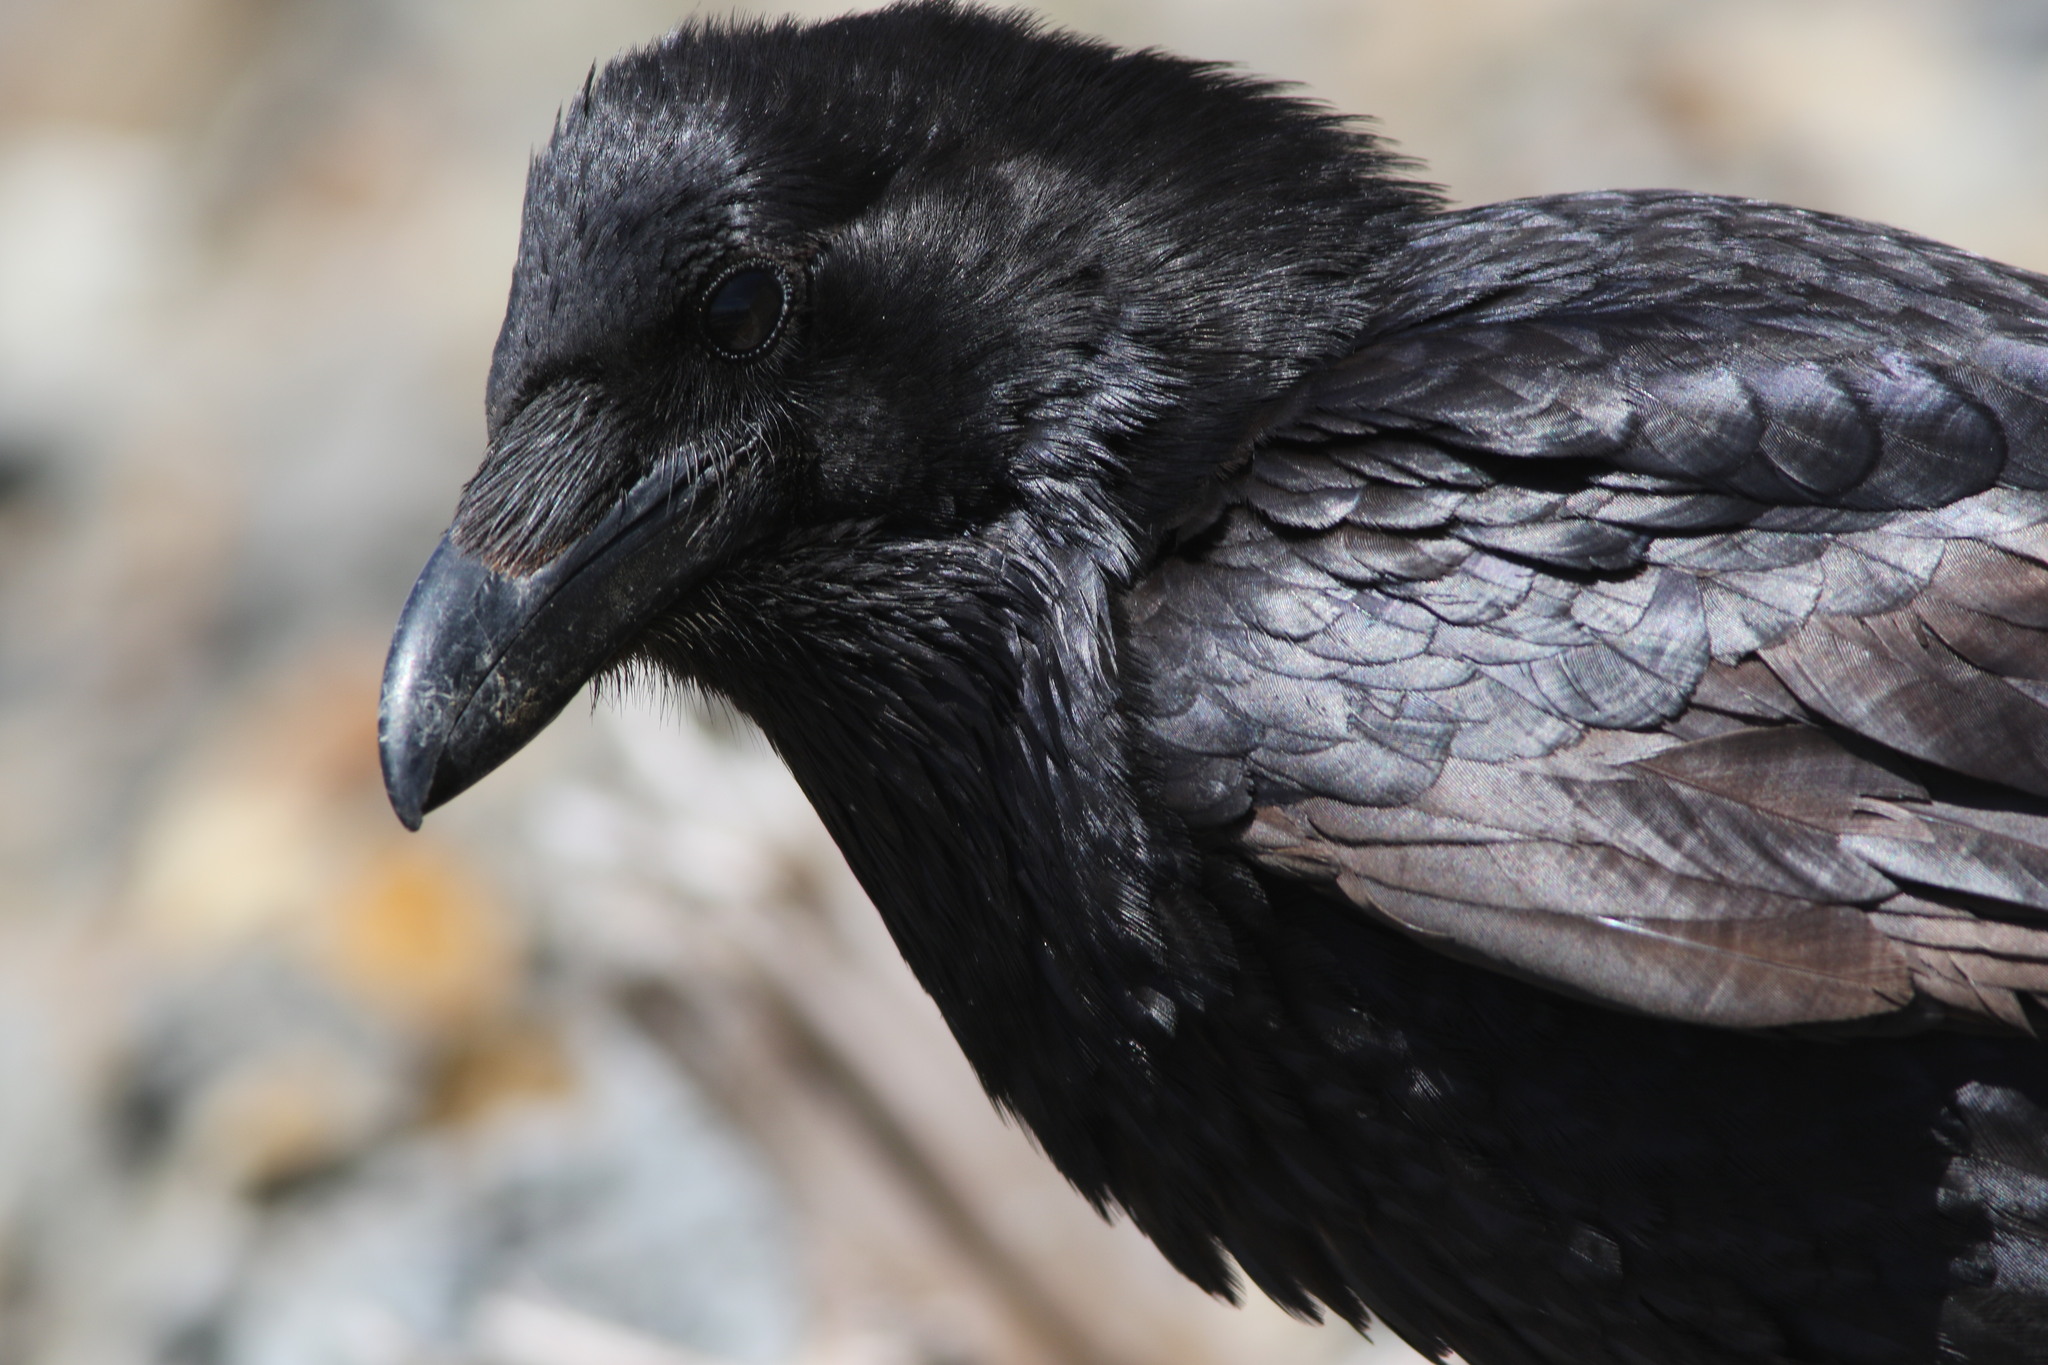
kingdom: Animalia
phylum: Chordata
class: Aves
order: Passeriformes
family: Corvidae
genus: Corvus
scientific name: Corvus corax
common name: Common raven
